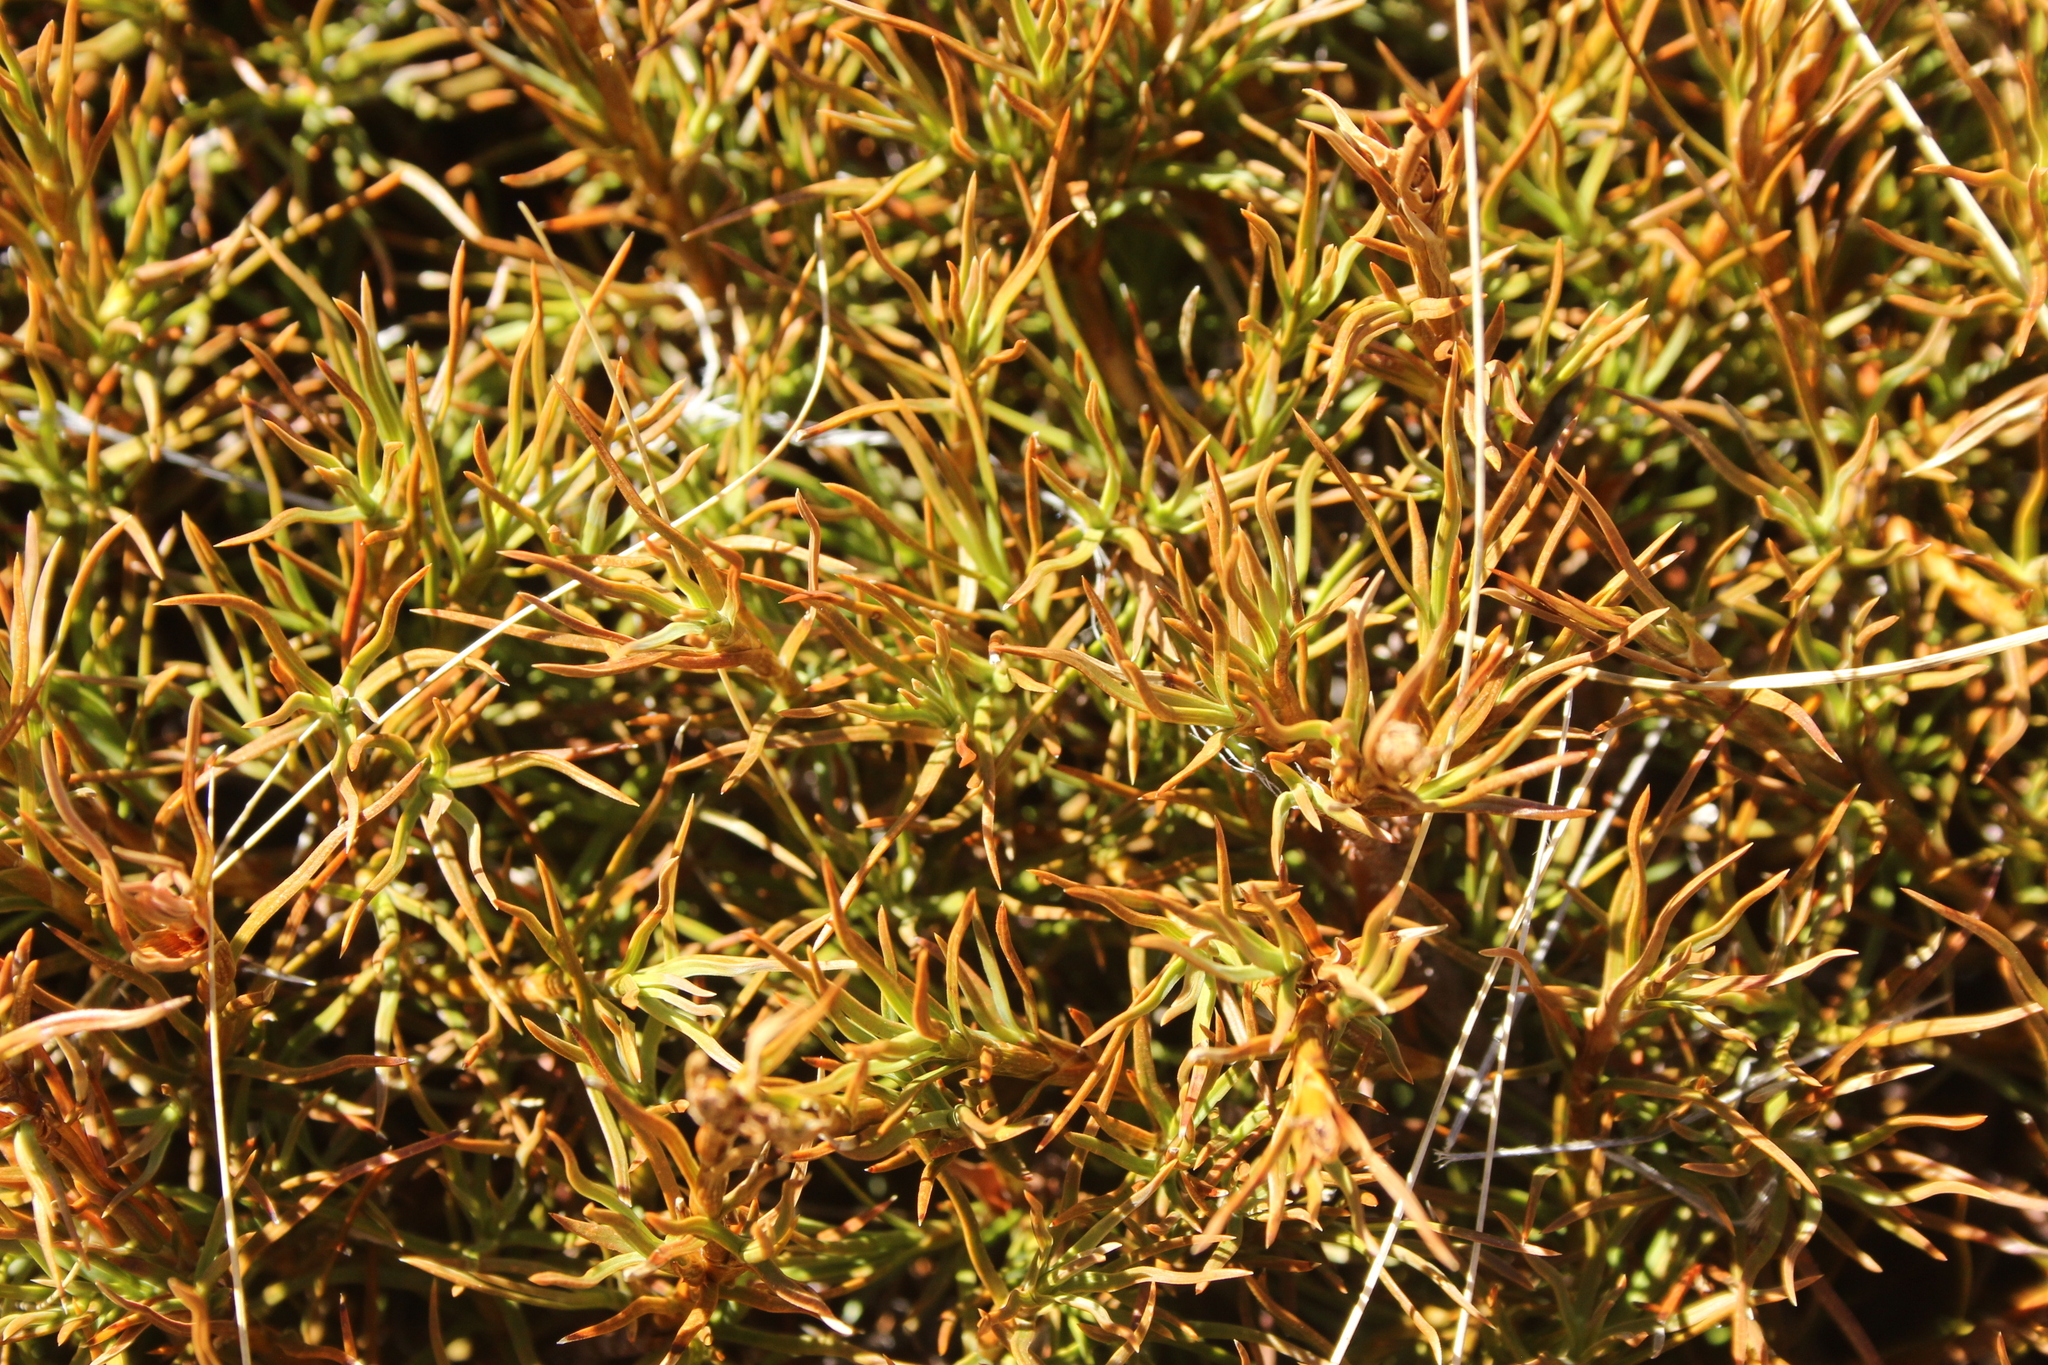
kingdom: Plantae
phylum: Tracheophyta
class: Magnoliopsida
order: Ericales
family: Ericaceae
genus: Dracophyllum
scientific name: Dracophyllum rosmarinifolium
